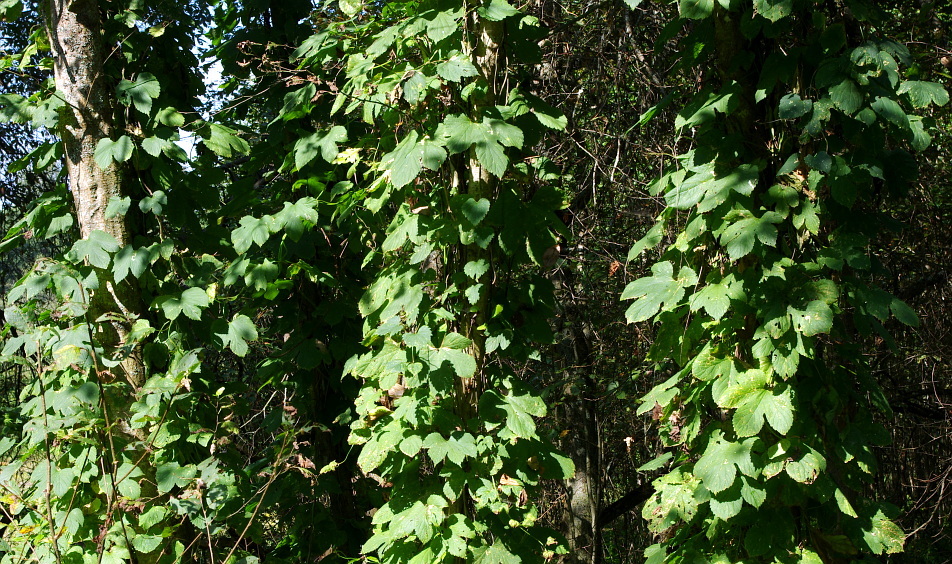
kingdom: Plantae
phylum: Tracheophyta
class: Magnoliopsida
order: Rosales
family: Cannabaceae
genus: Humulus
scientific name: Humulus lupulus
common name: Hop
